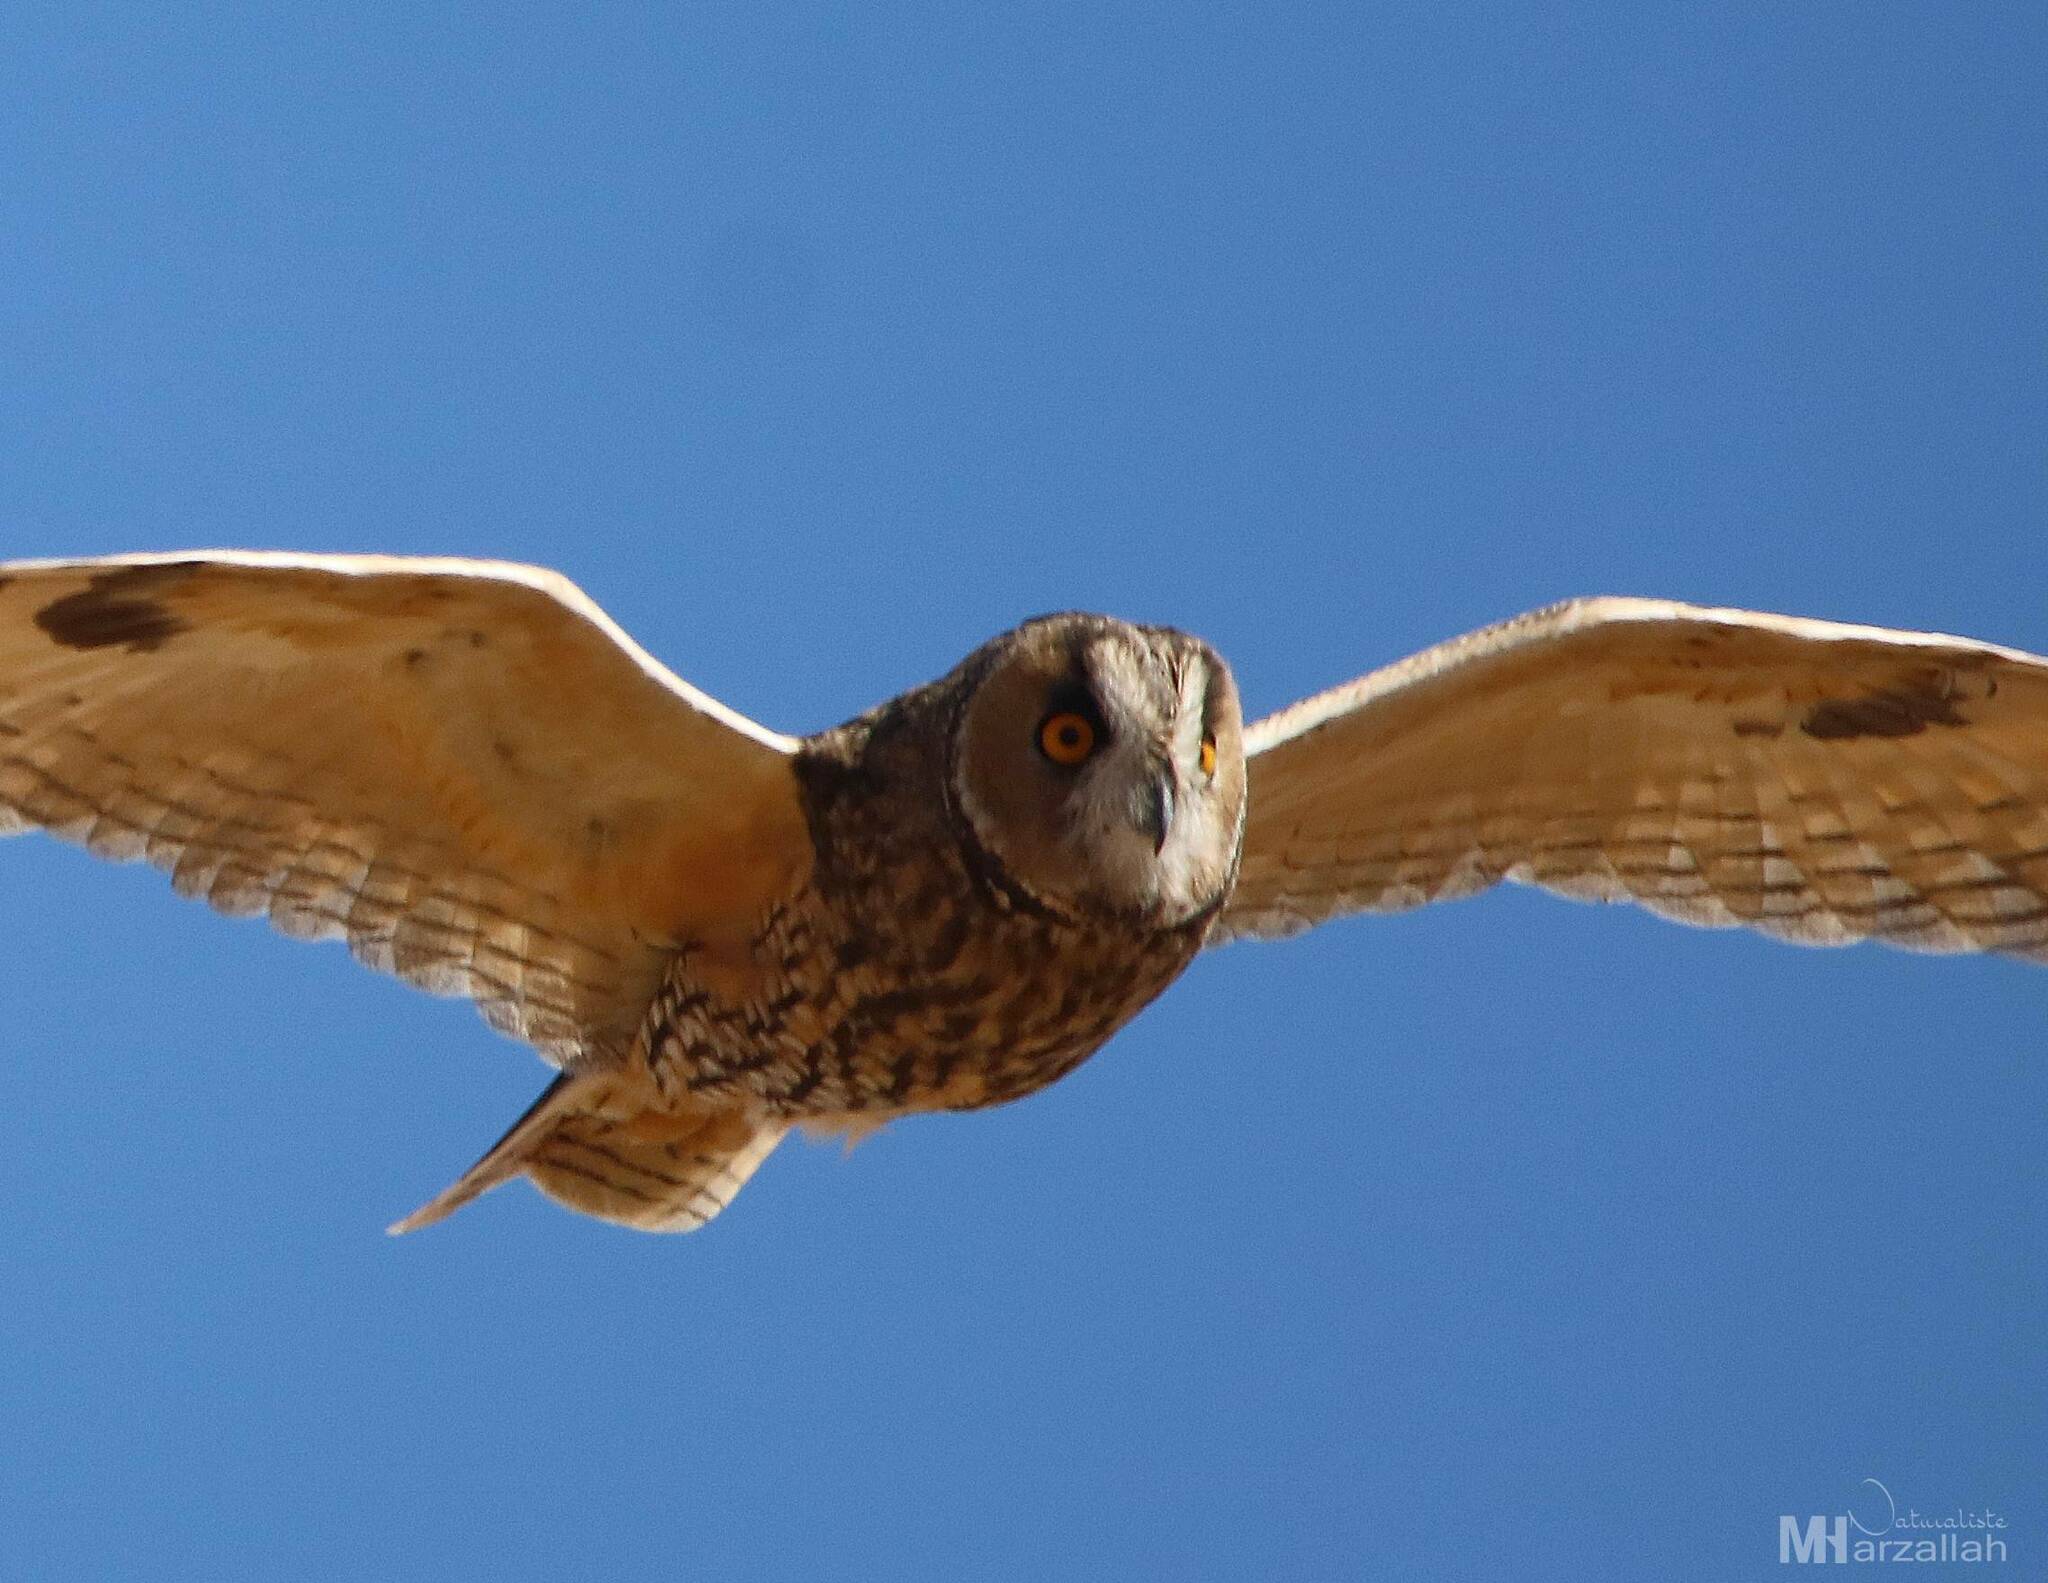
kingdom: Animalia
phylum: Chordata
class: Aves
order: Strigiformes
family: Strigidae
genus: Asio
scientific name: Asio otus
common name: Long-eared owl
